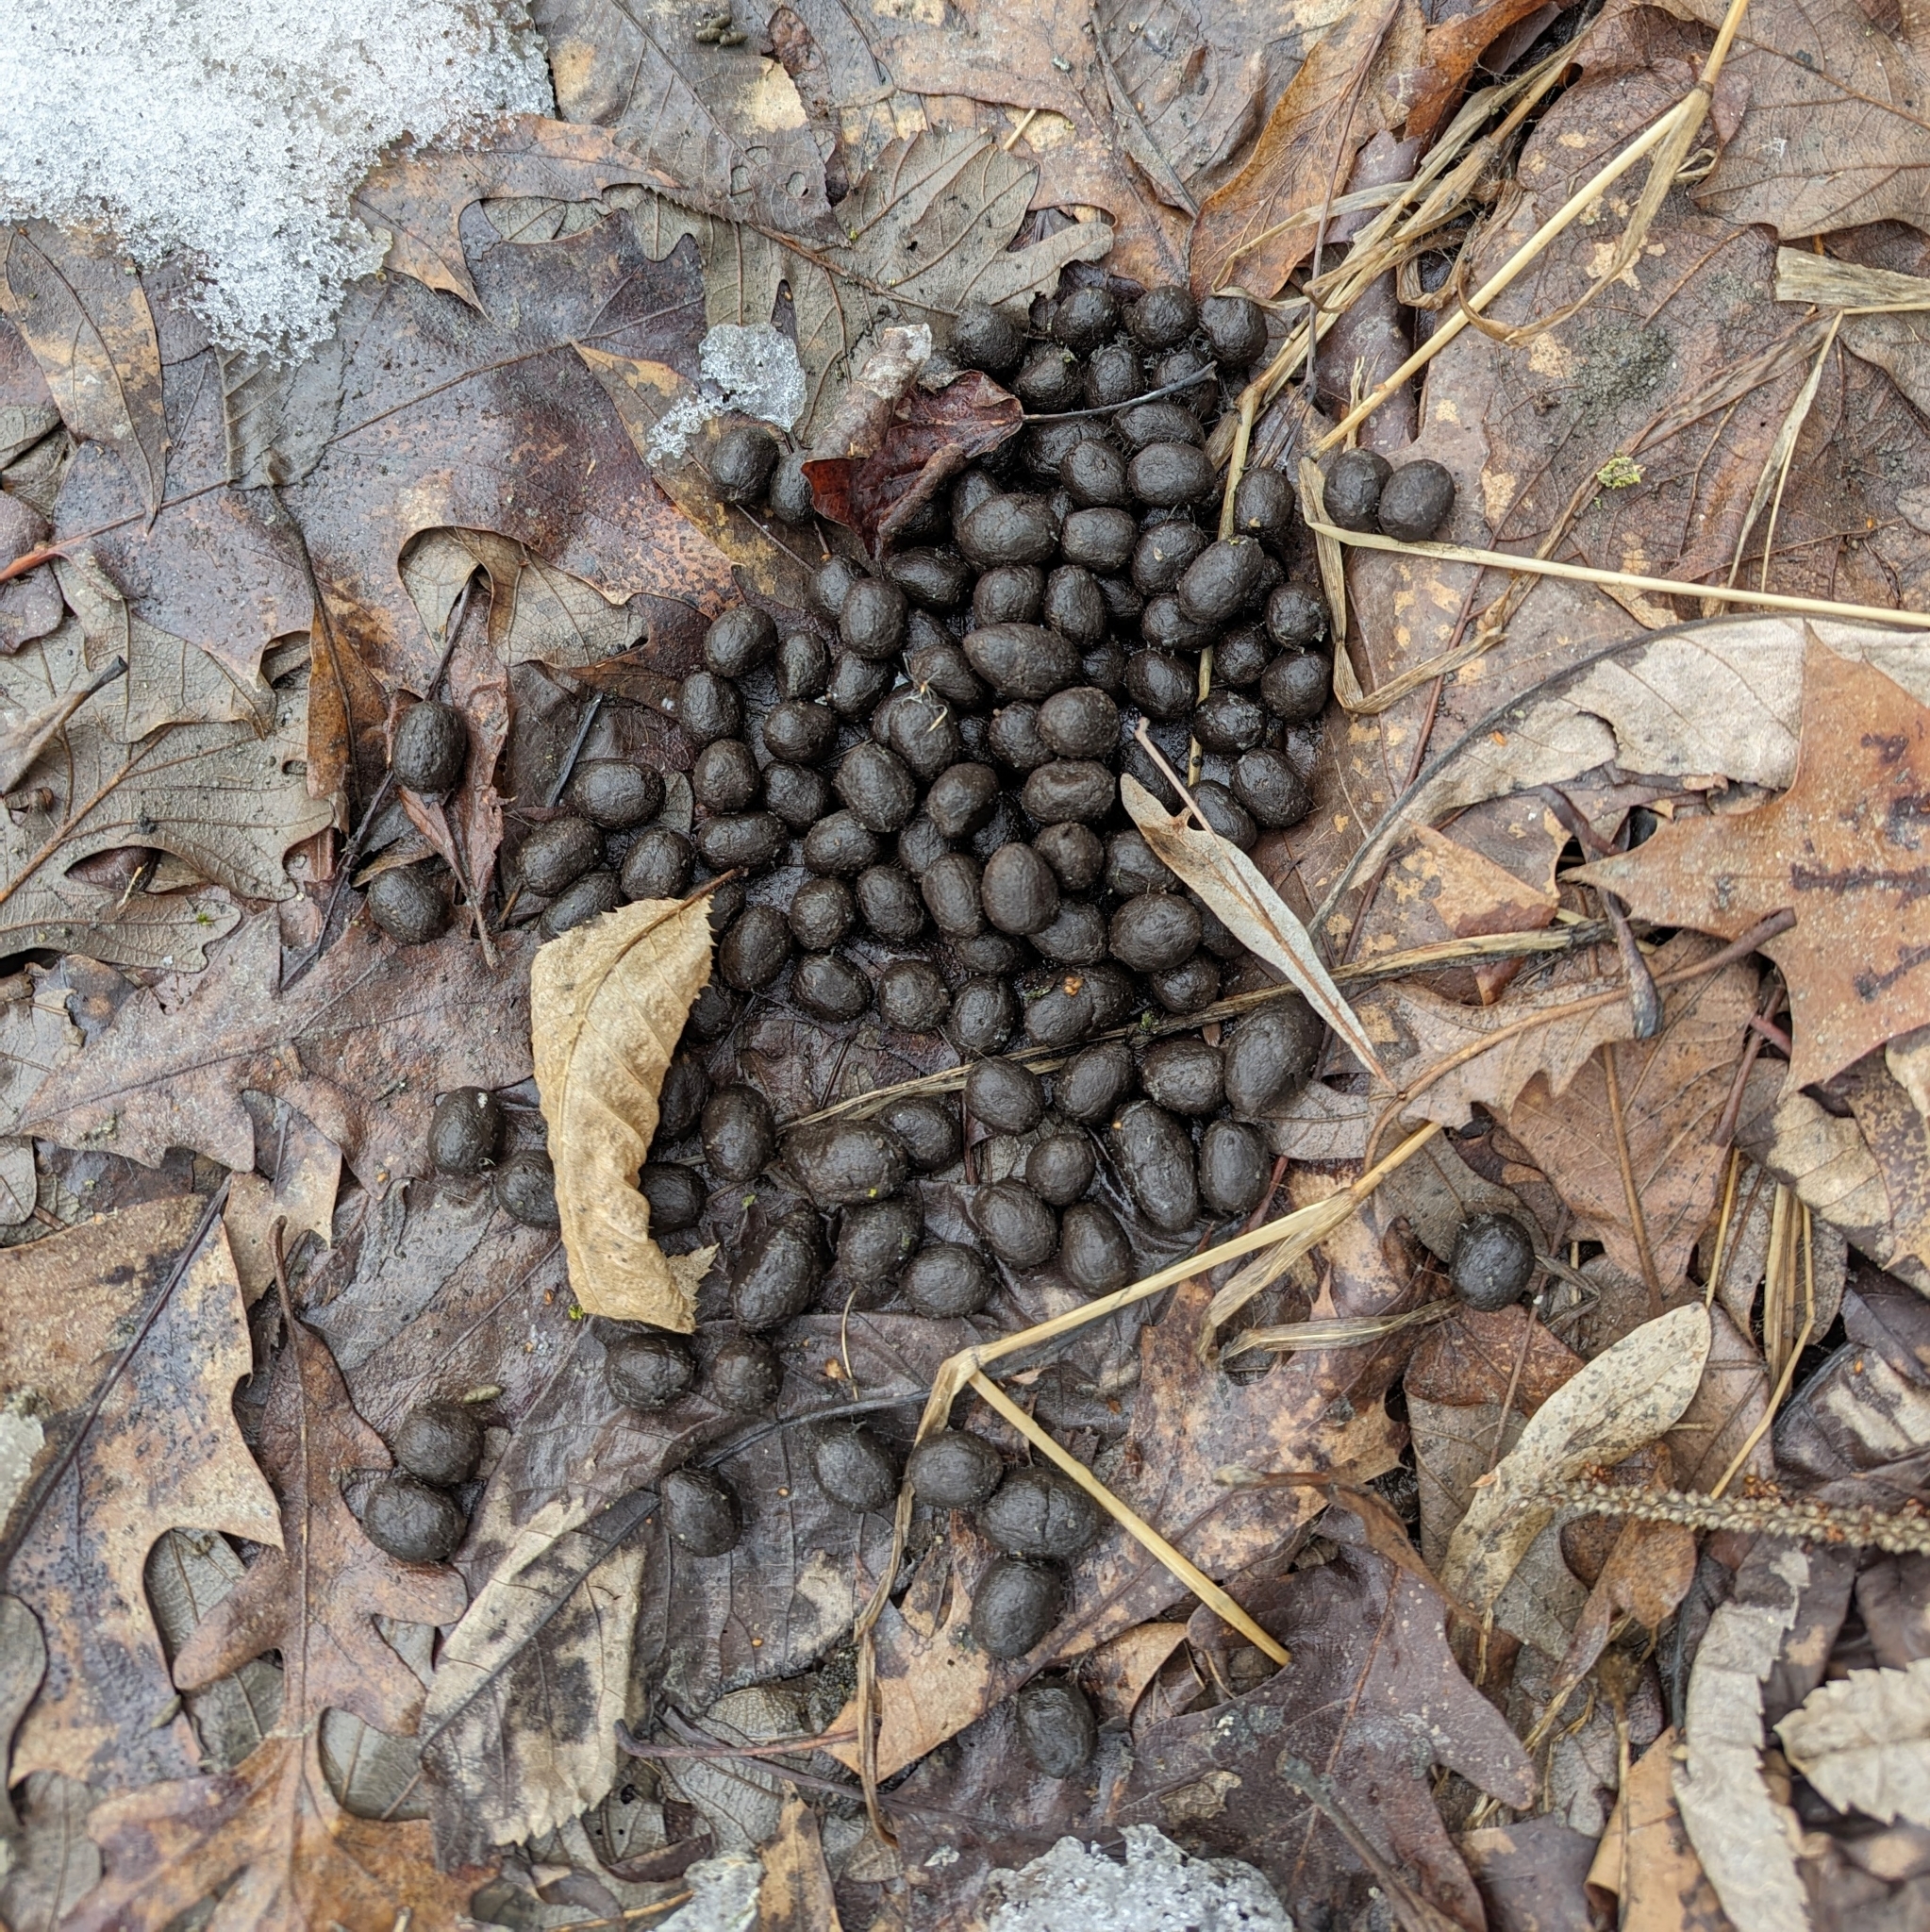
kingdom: Animalia
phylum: Chordata
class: Mammalia
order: Artiodactyla
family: Cervidae
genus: Odocoileus
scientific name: Odocoileus virginianus
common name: White-tailed deer
